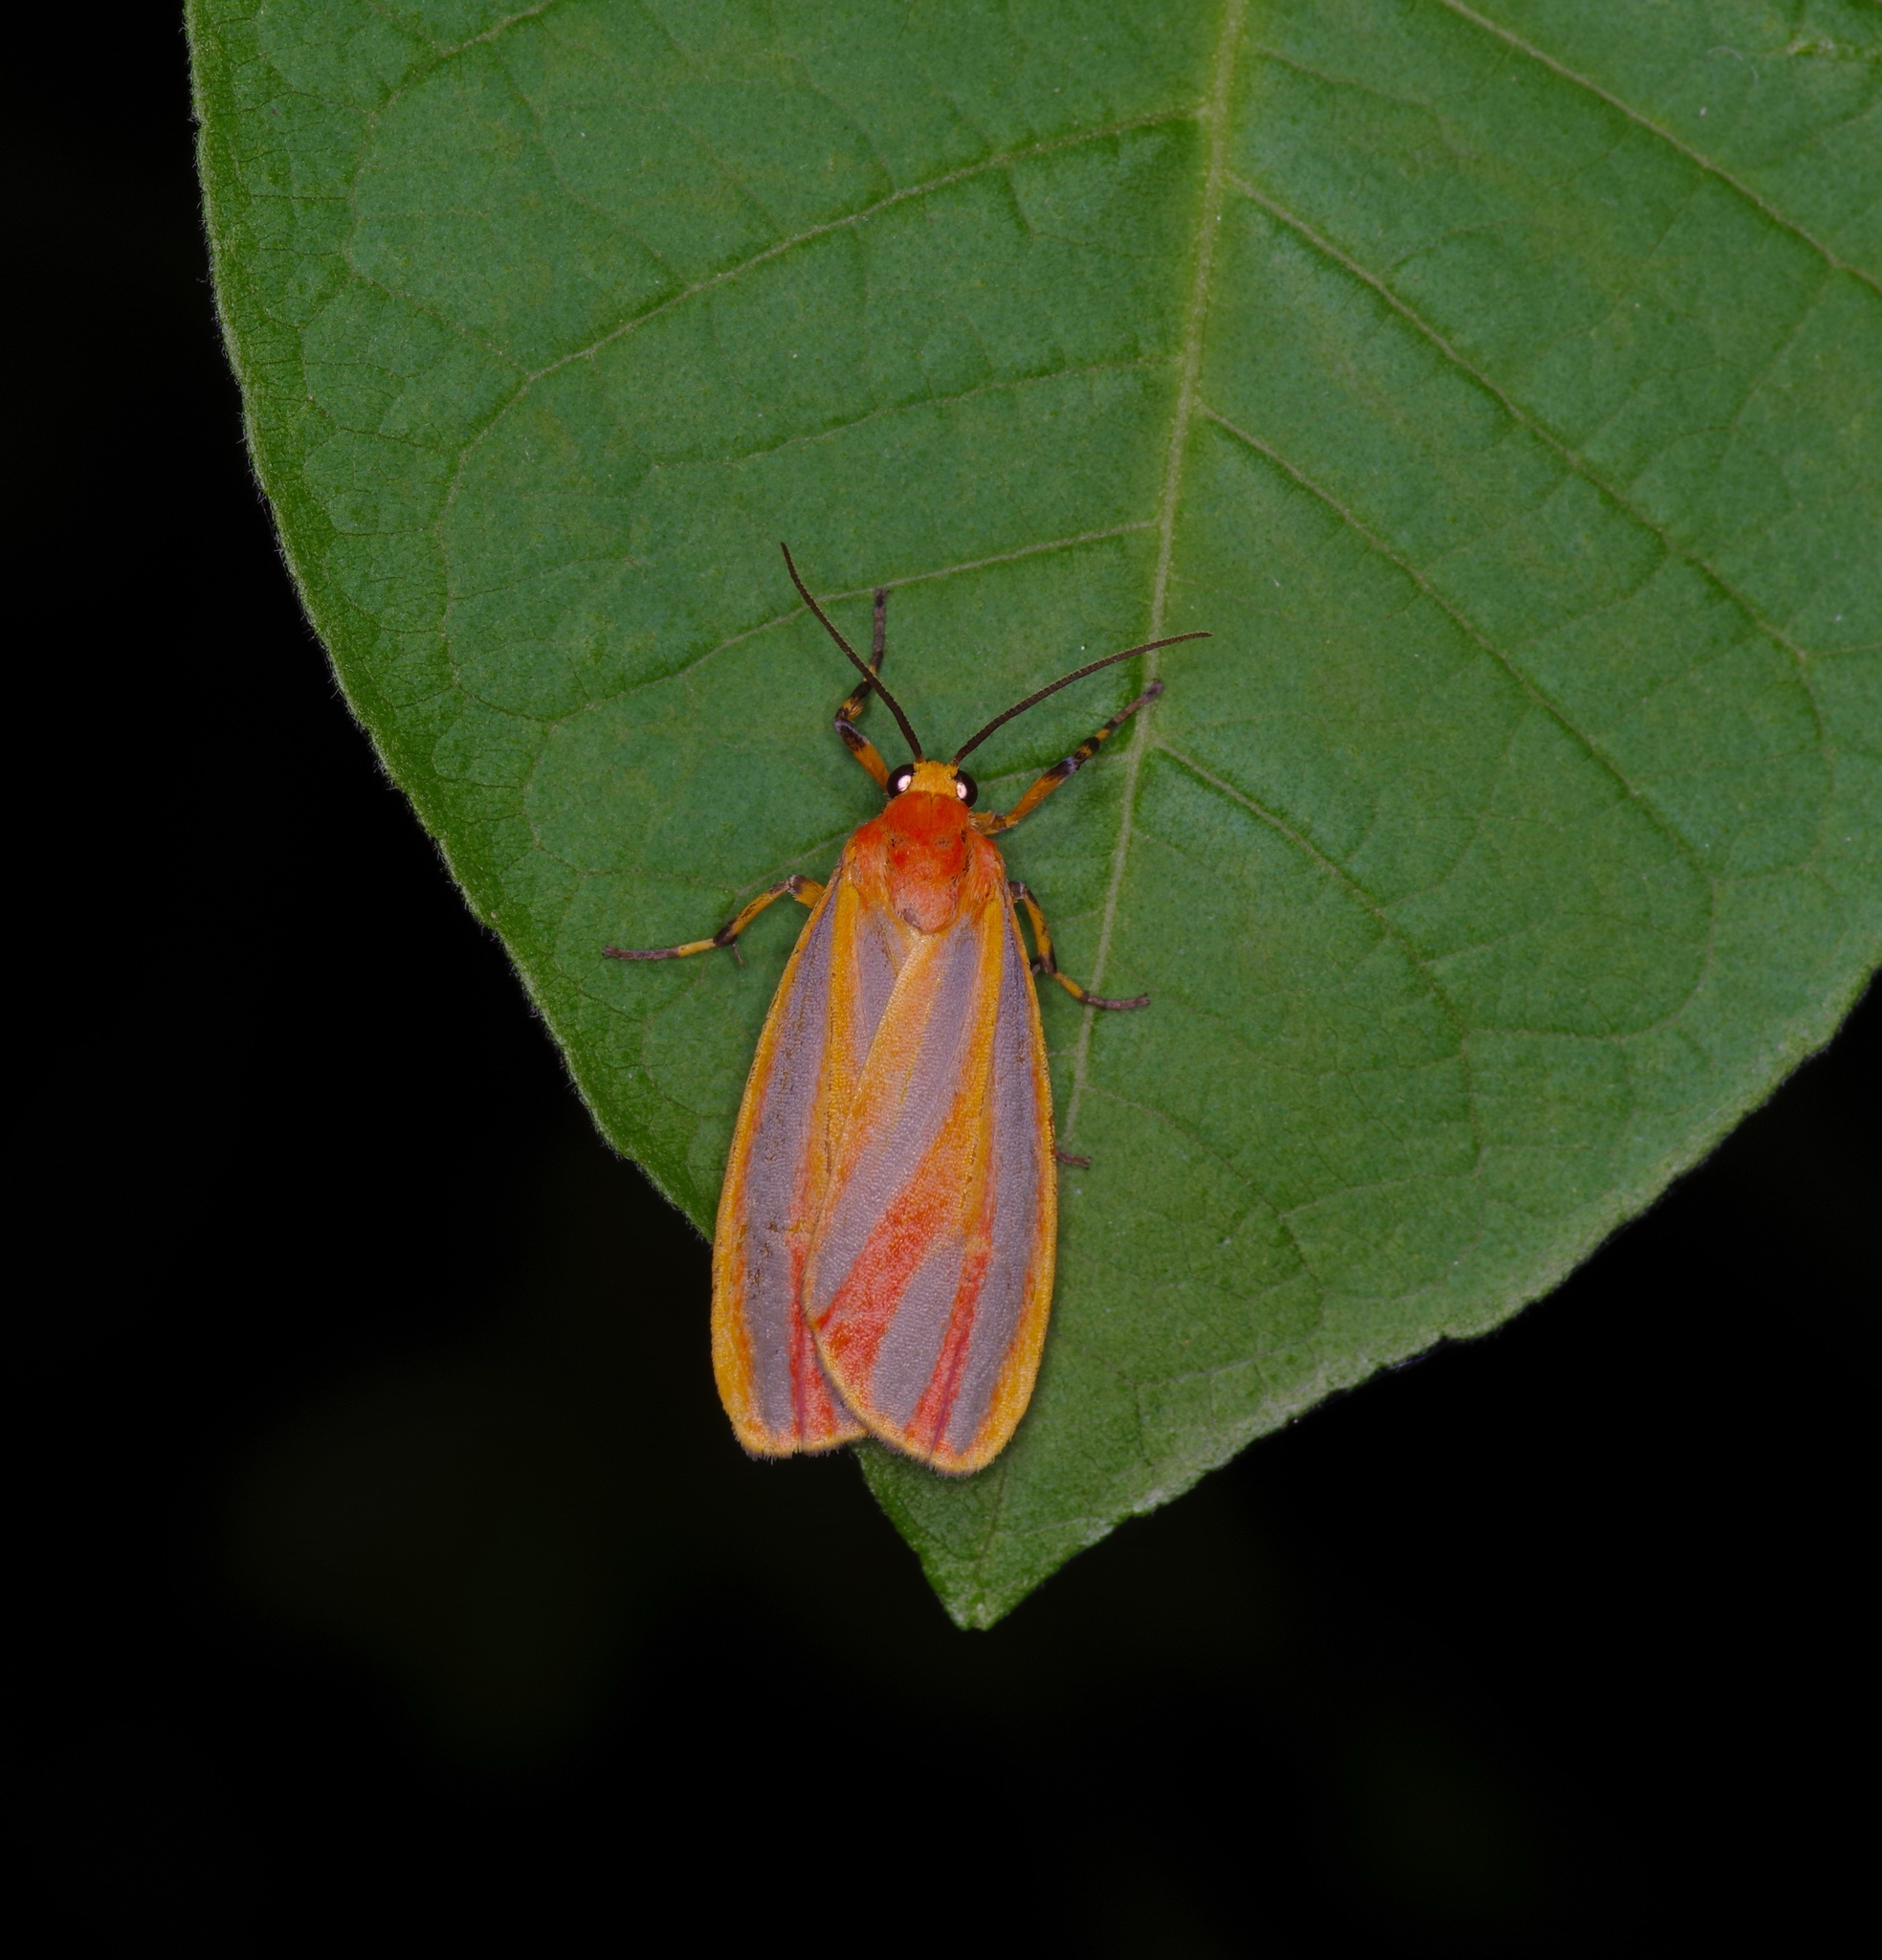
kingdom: Animalia
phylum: Arthropoda
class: Insecta
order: Lepidoptera
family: Erebidae
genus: Hypoprepia
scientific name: Hypoprepia fucosa
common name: Painted lichen moth
